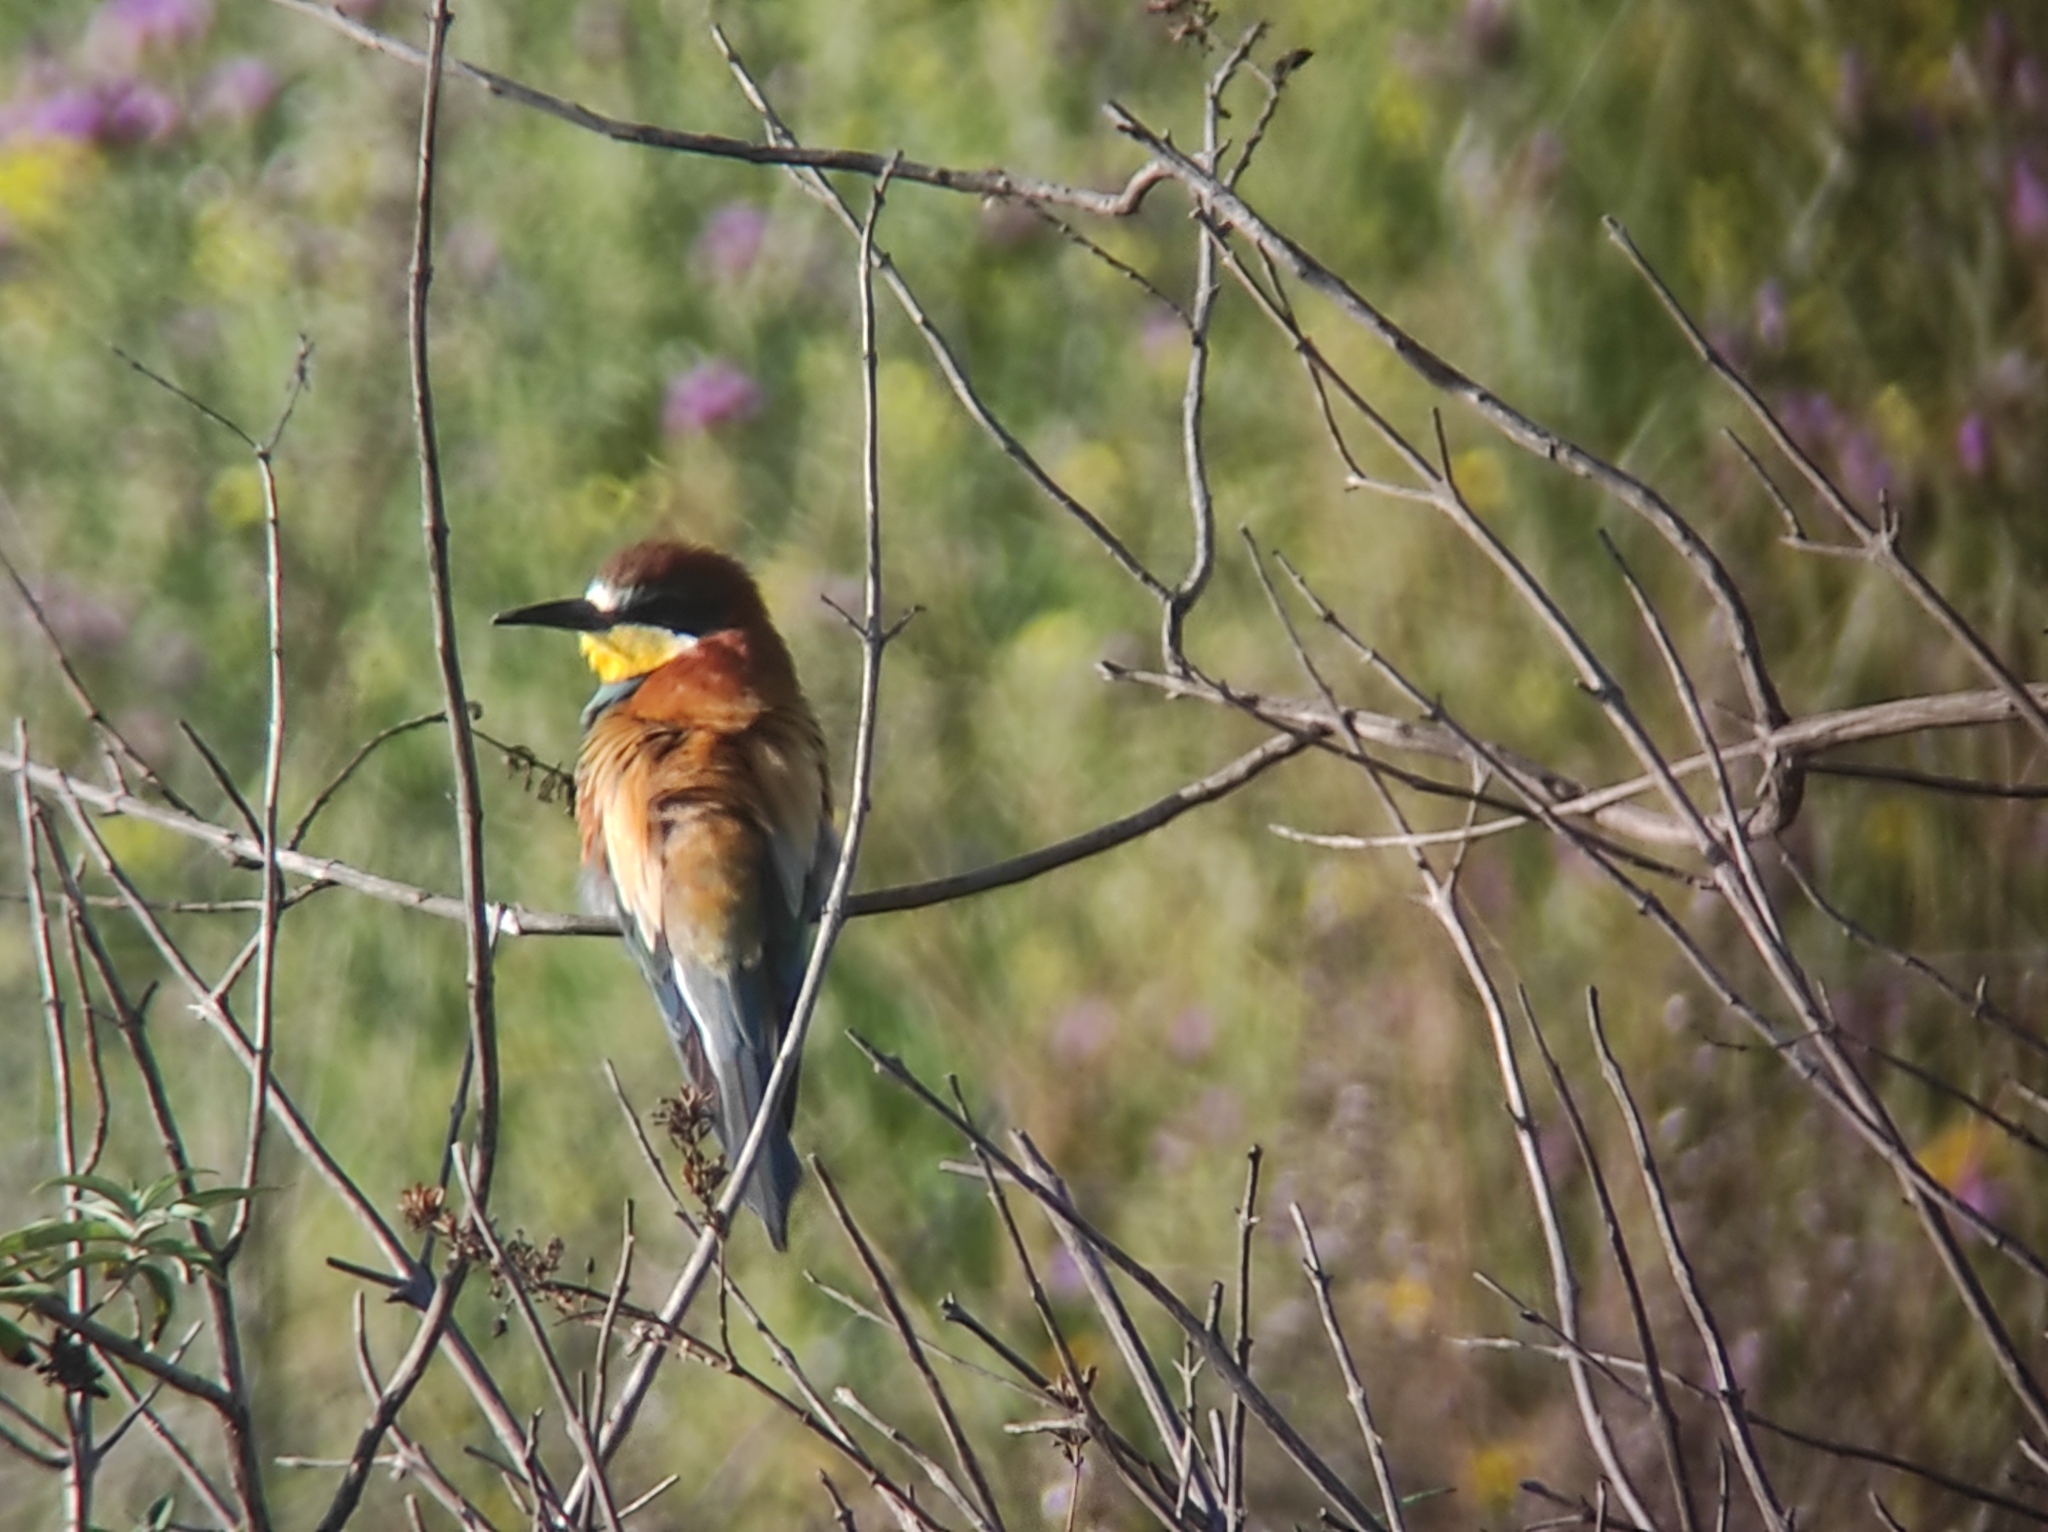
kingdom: Animalia
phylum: Chordata
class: Aves
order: Coraciiformes
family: Meropidae
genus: Merops
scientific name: Merops apiaster
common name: European bee-eater
